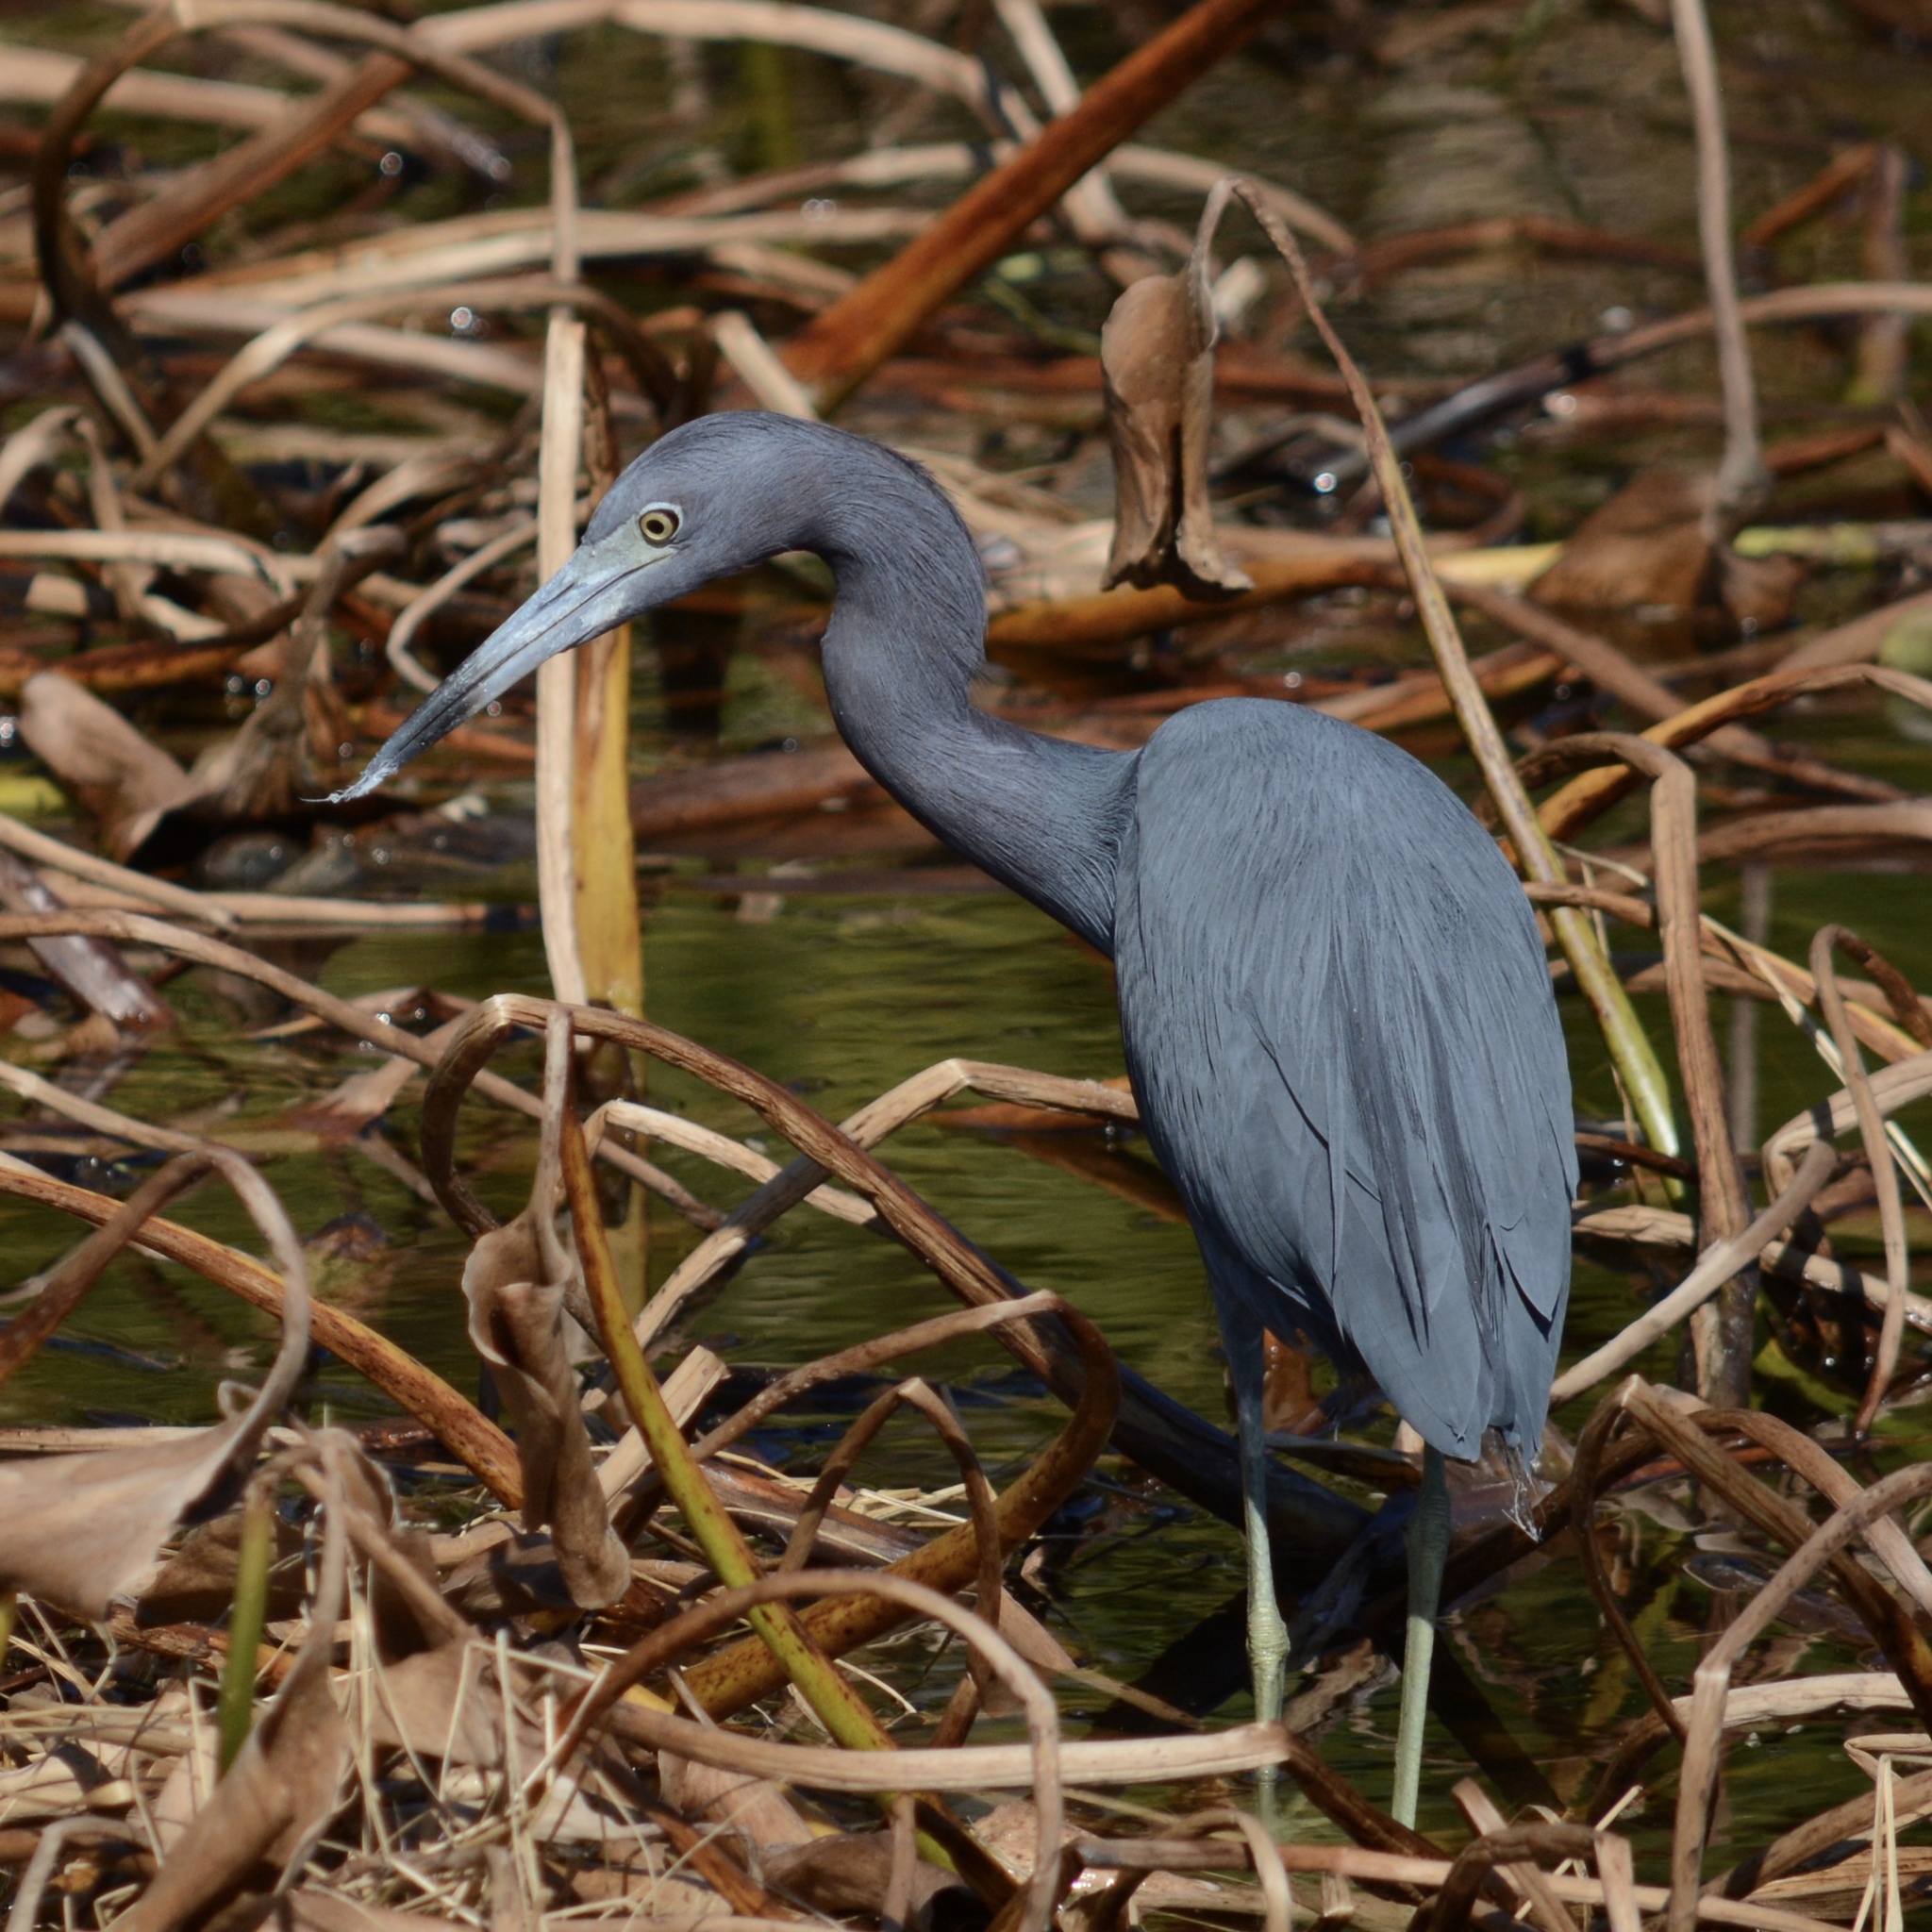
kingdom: Animalia
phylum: Chordata
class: Aves
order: Pelecaniformes
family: Ardeidae
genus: Egretta
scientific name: Egretta caerulea
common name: Little blue heron
